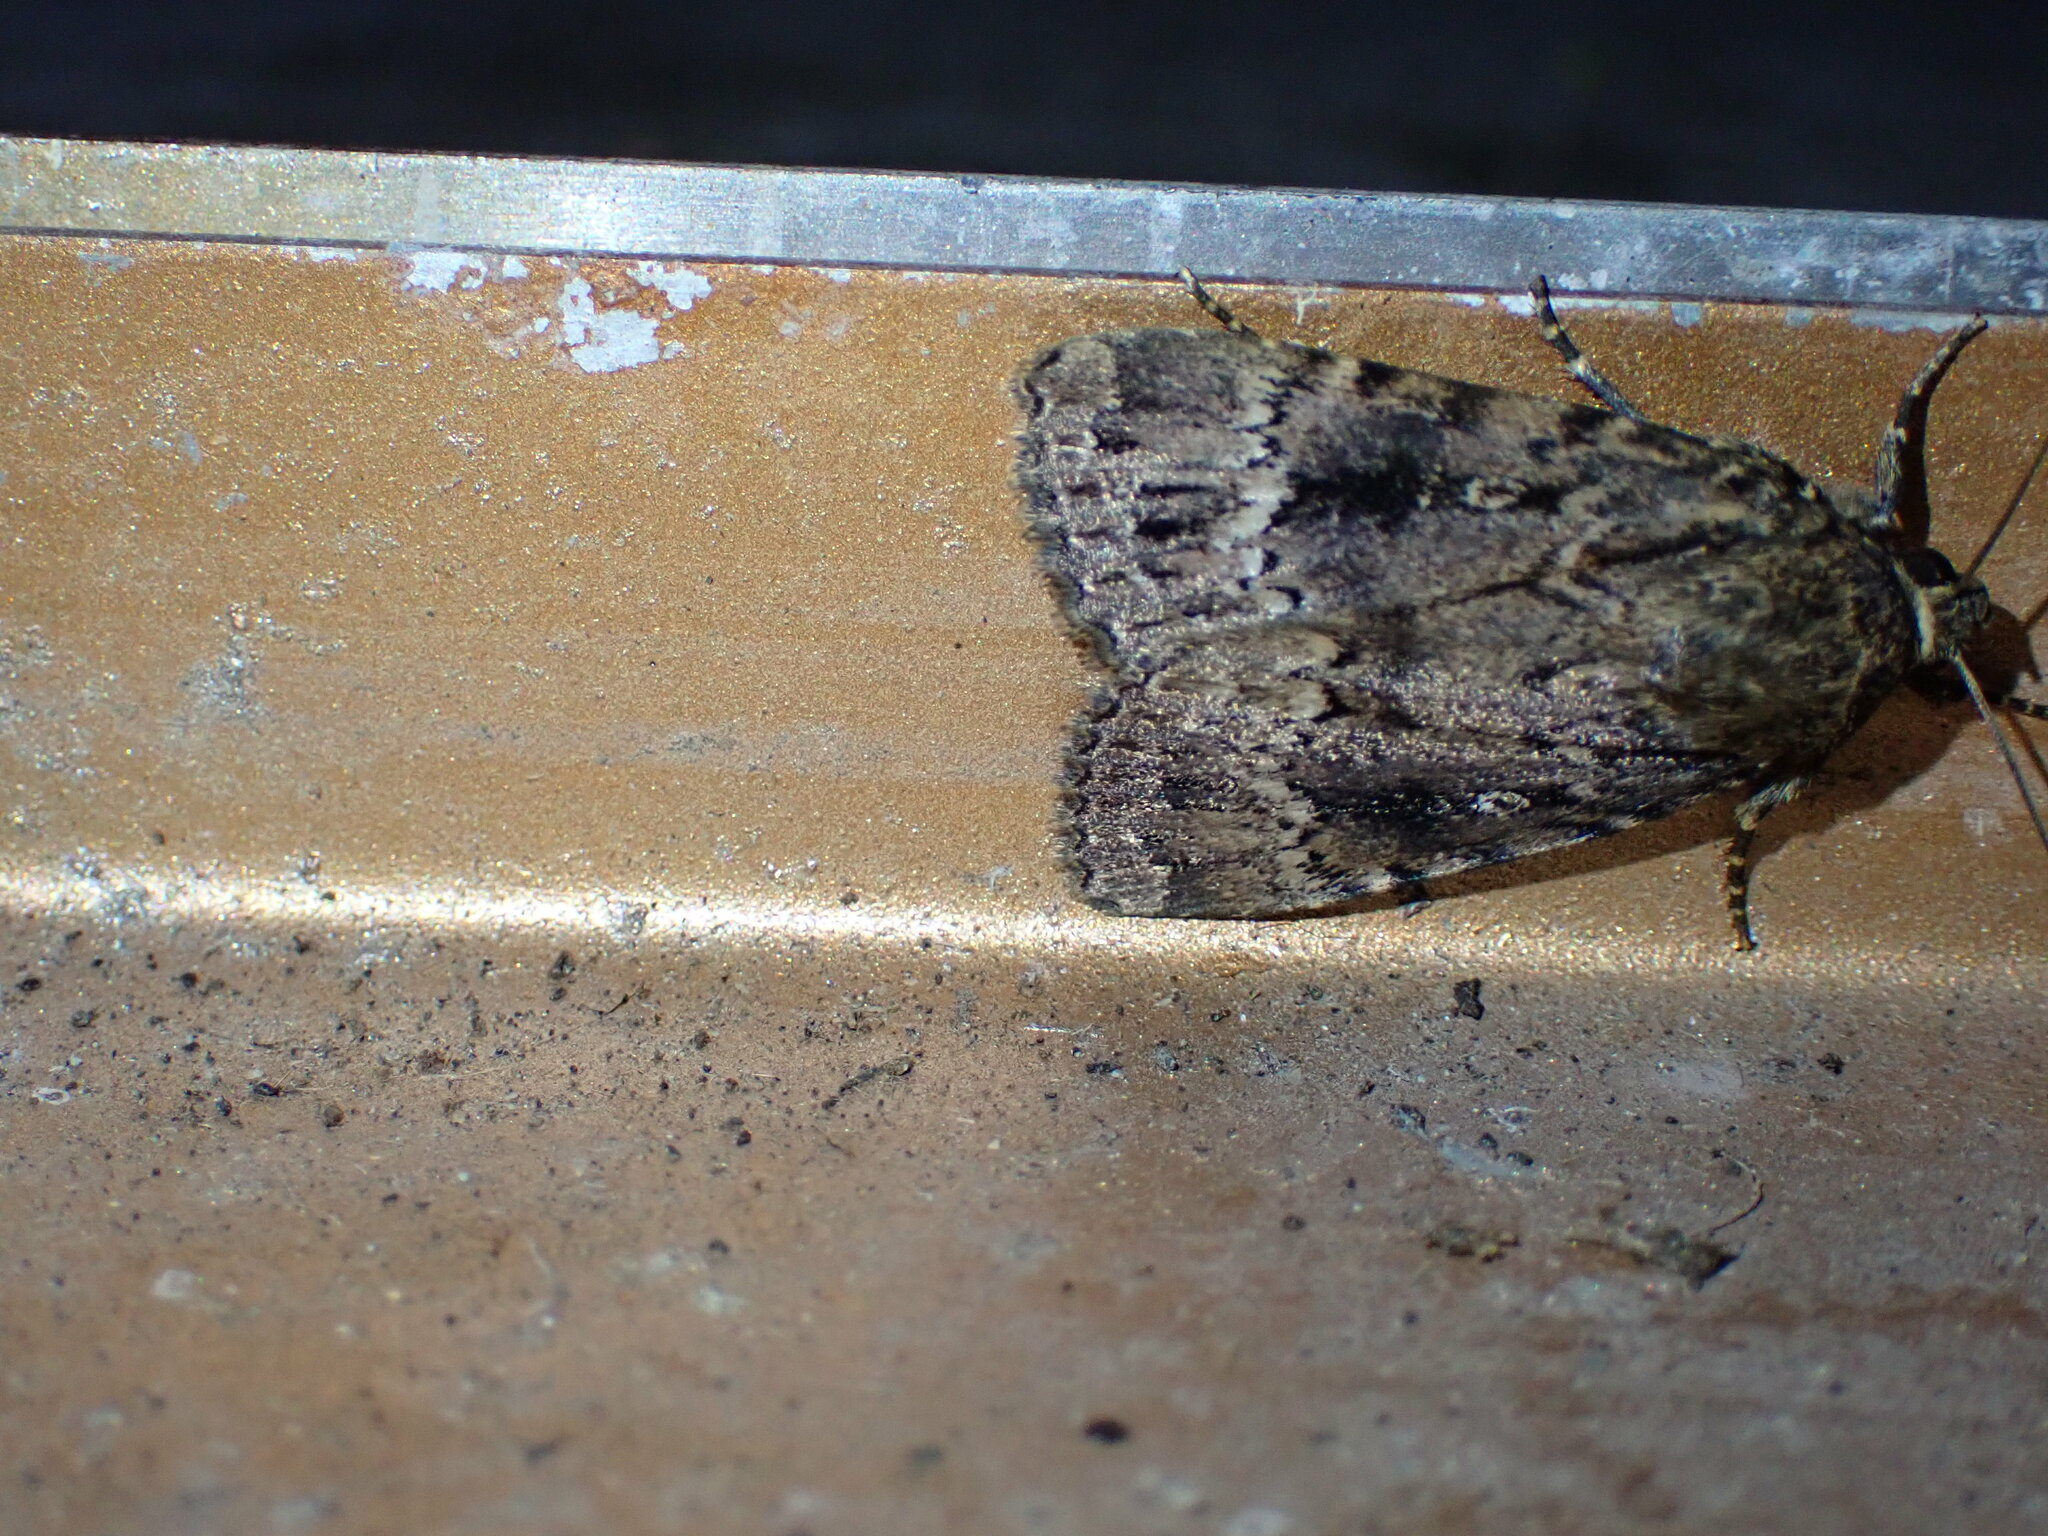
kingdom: Animalia
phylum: Arthropoda
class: Insecta
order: Lepidoptera
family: Noctuidae
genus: Amphipyra
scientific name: Amphipyra
